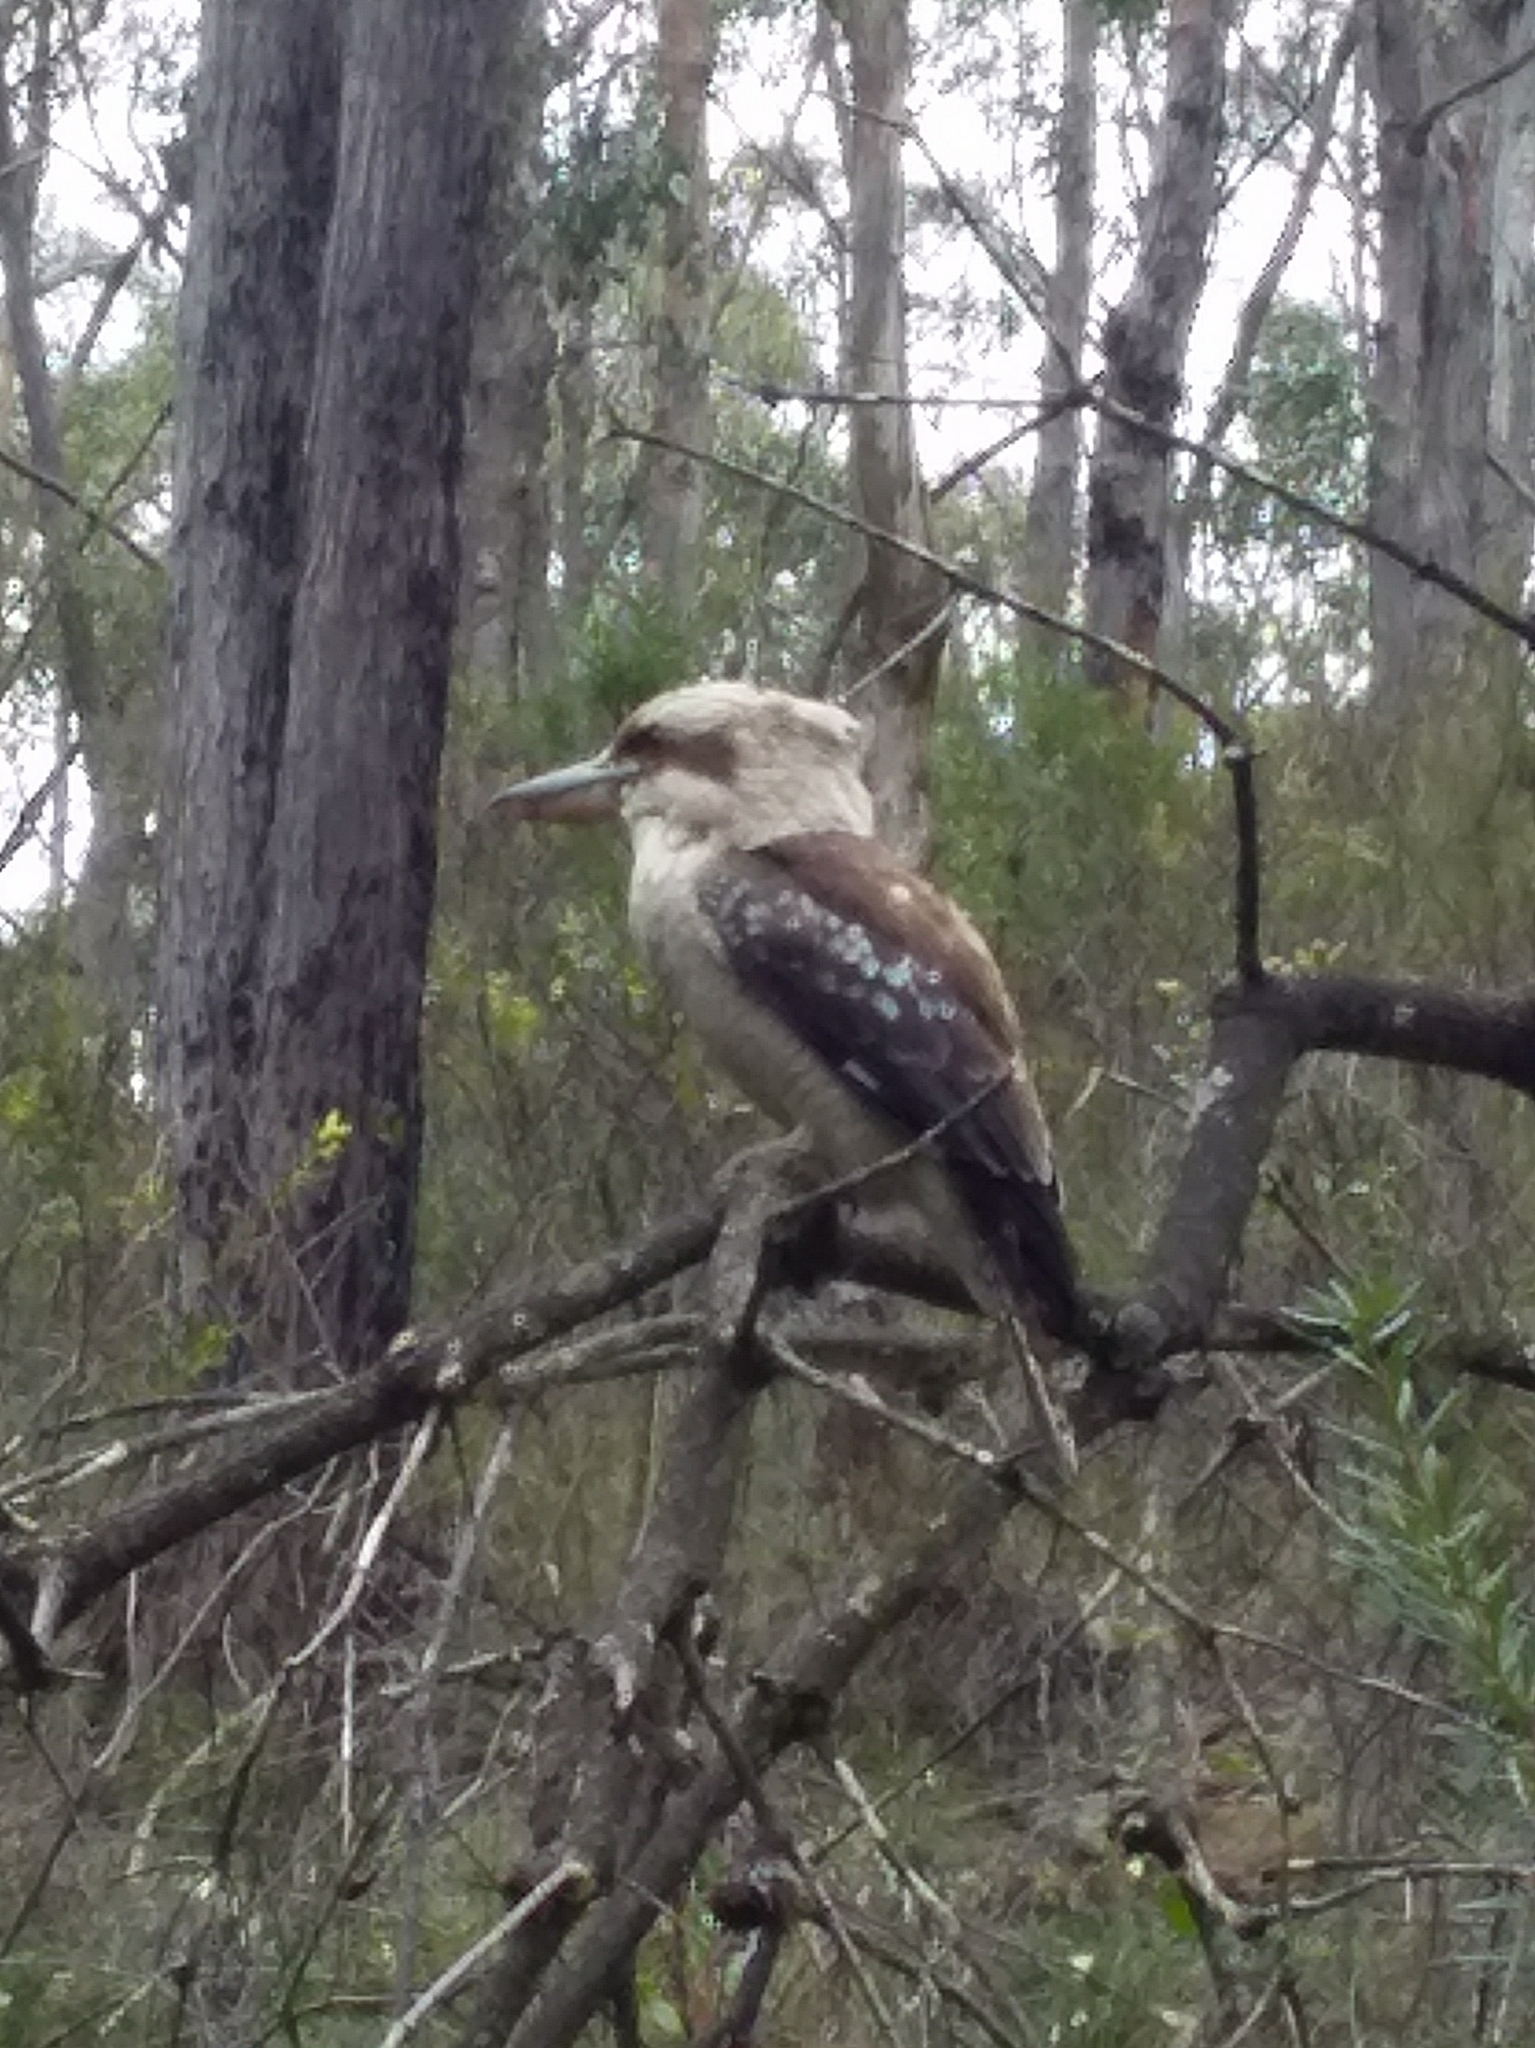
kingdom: Animalia
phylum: Chordata
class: Aves
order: Coraciiformes
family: Alcedinidae
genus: Dacelo
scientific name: Dacelo novaeguineae
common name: Laughing kookaburra
